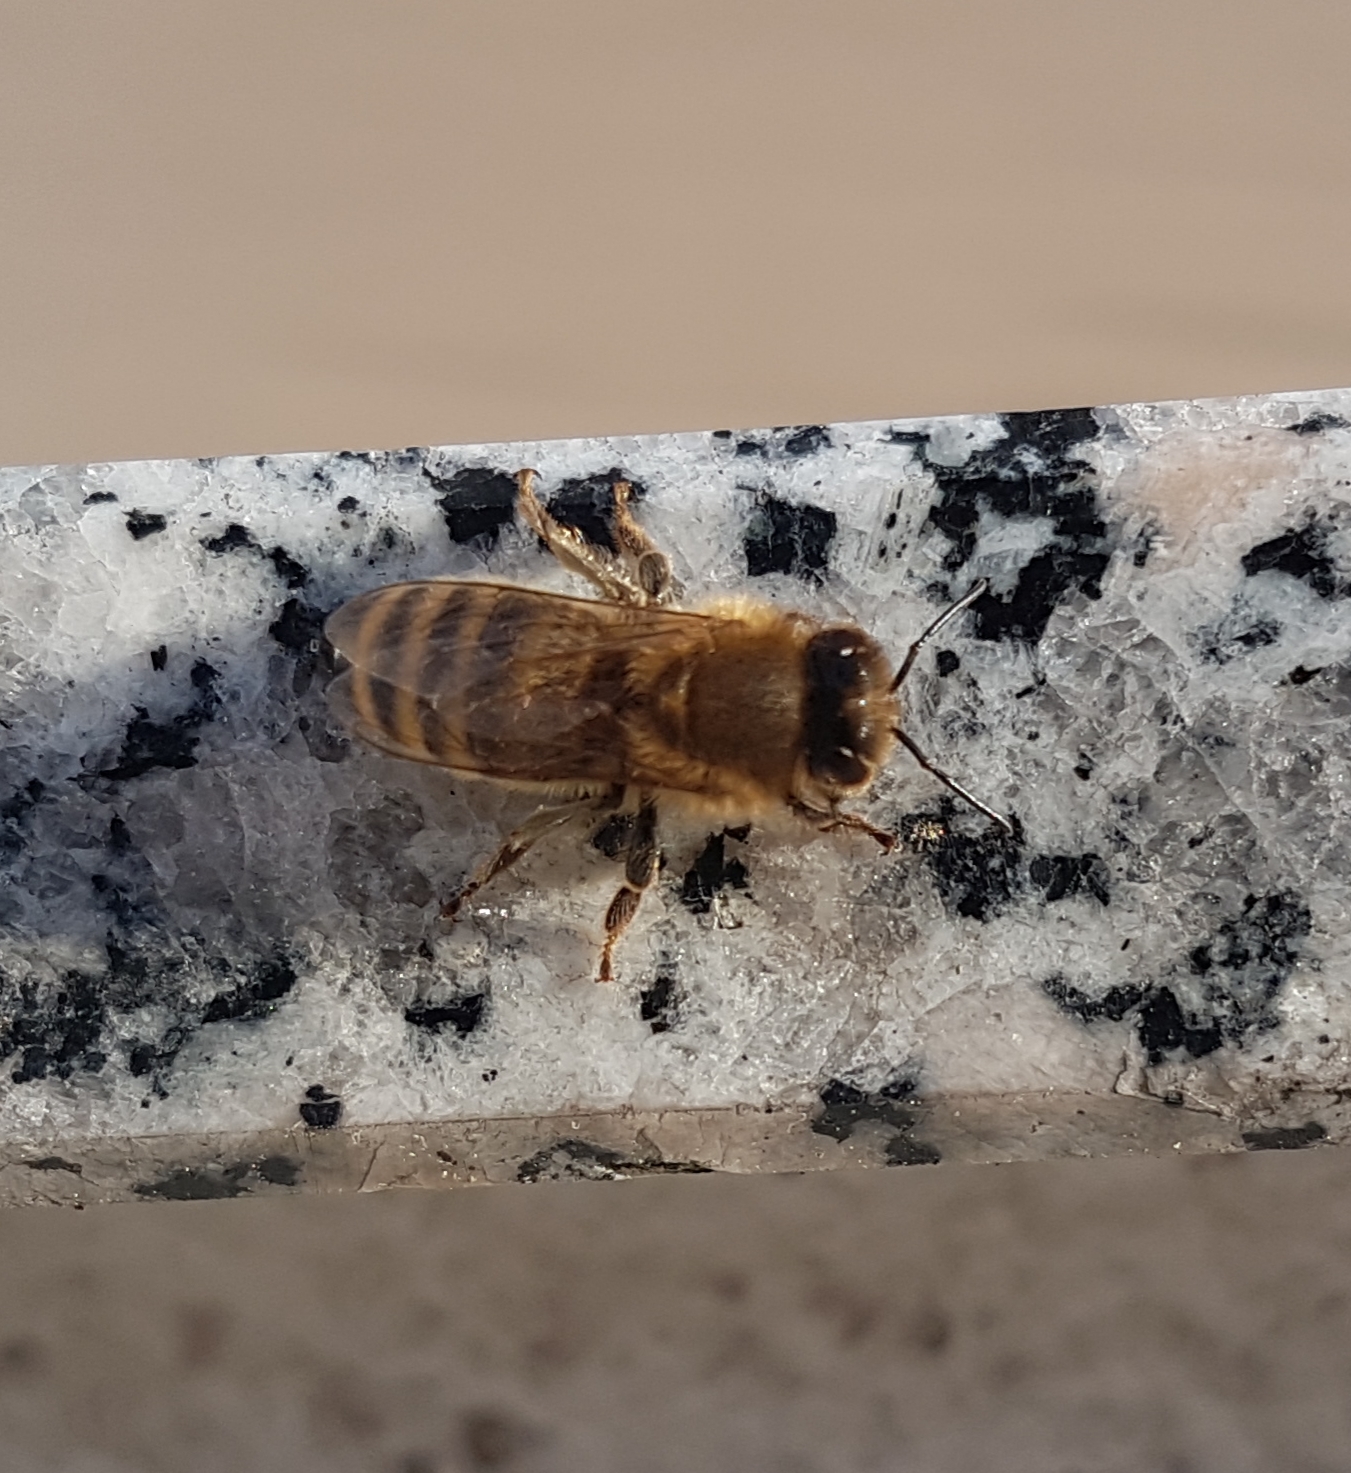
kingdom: Animalia
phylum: Arthropoda
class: Insecta
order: Hymenoptera
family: Apidae
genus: Apis
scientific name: Apis mellifera
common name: Honey bee
